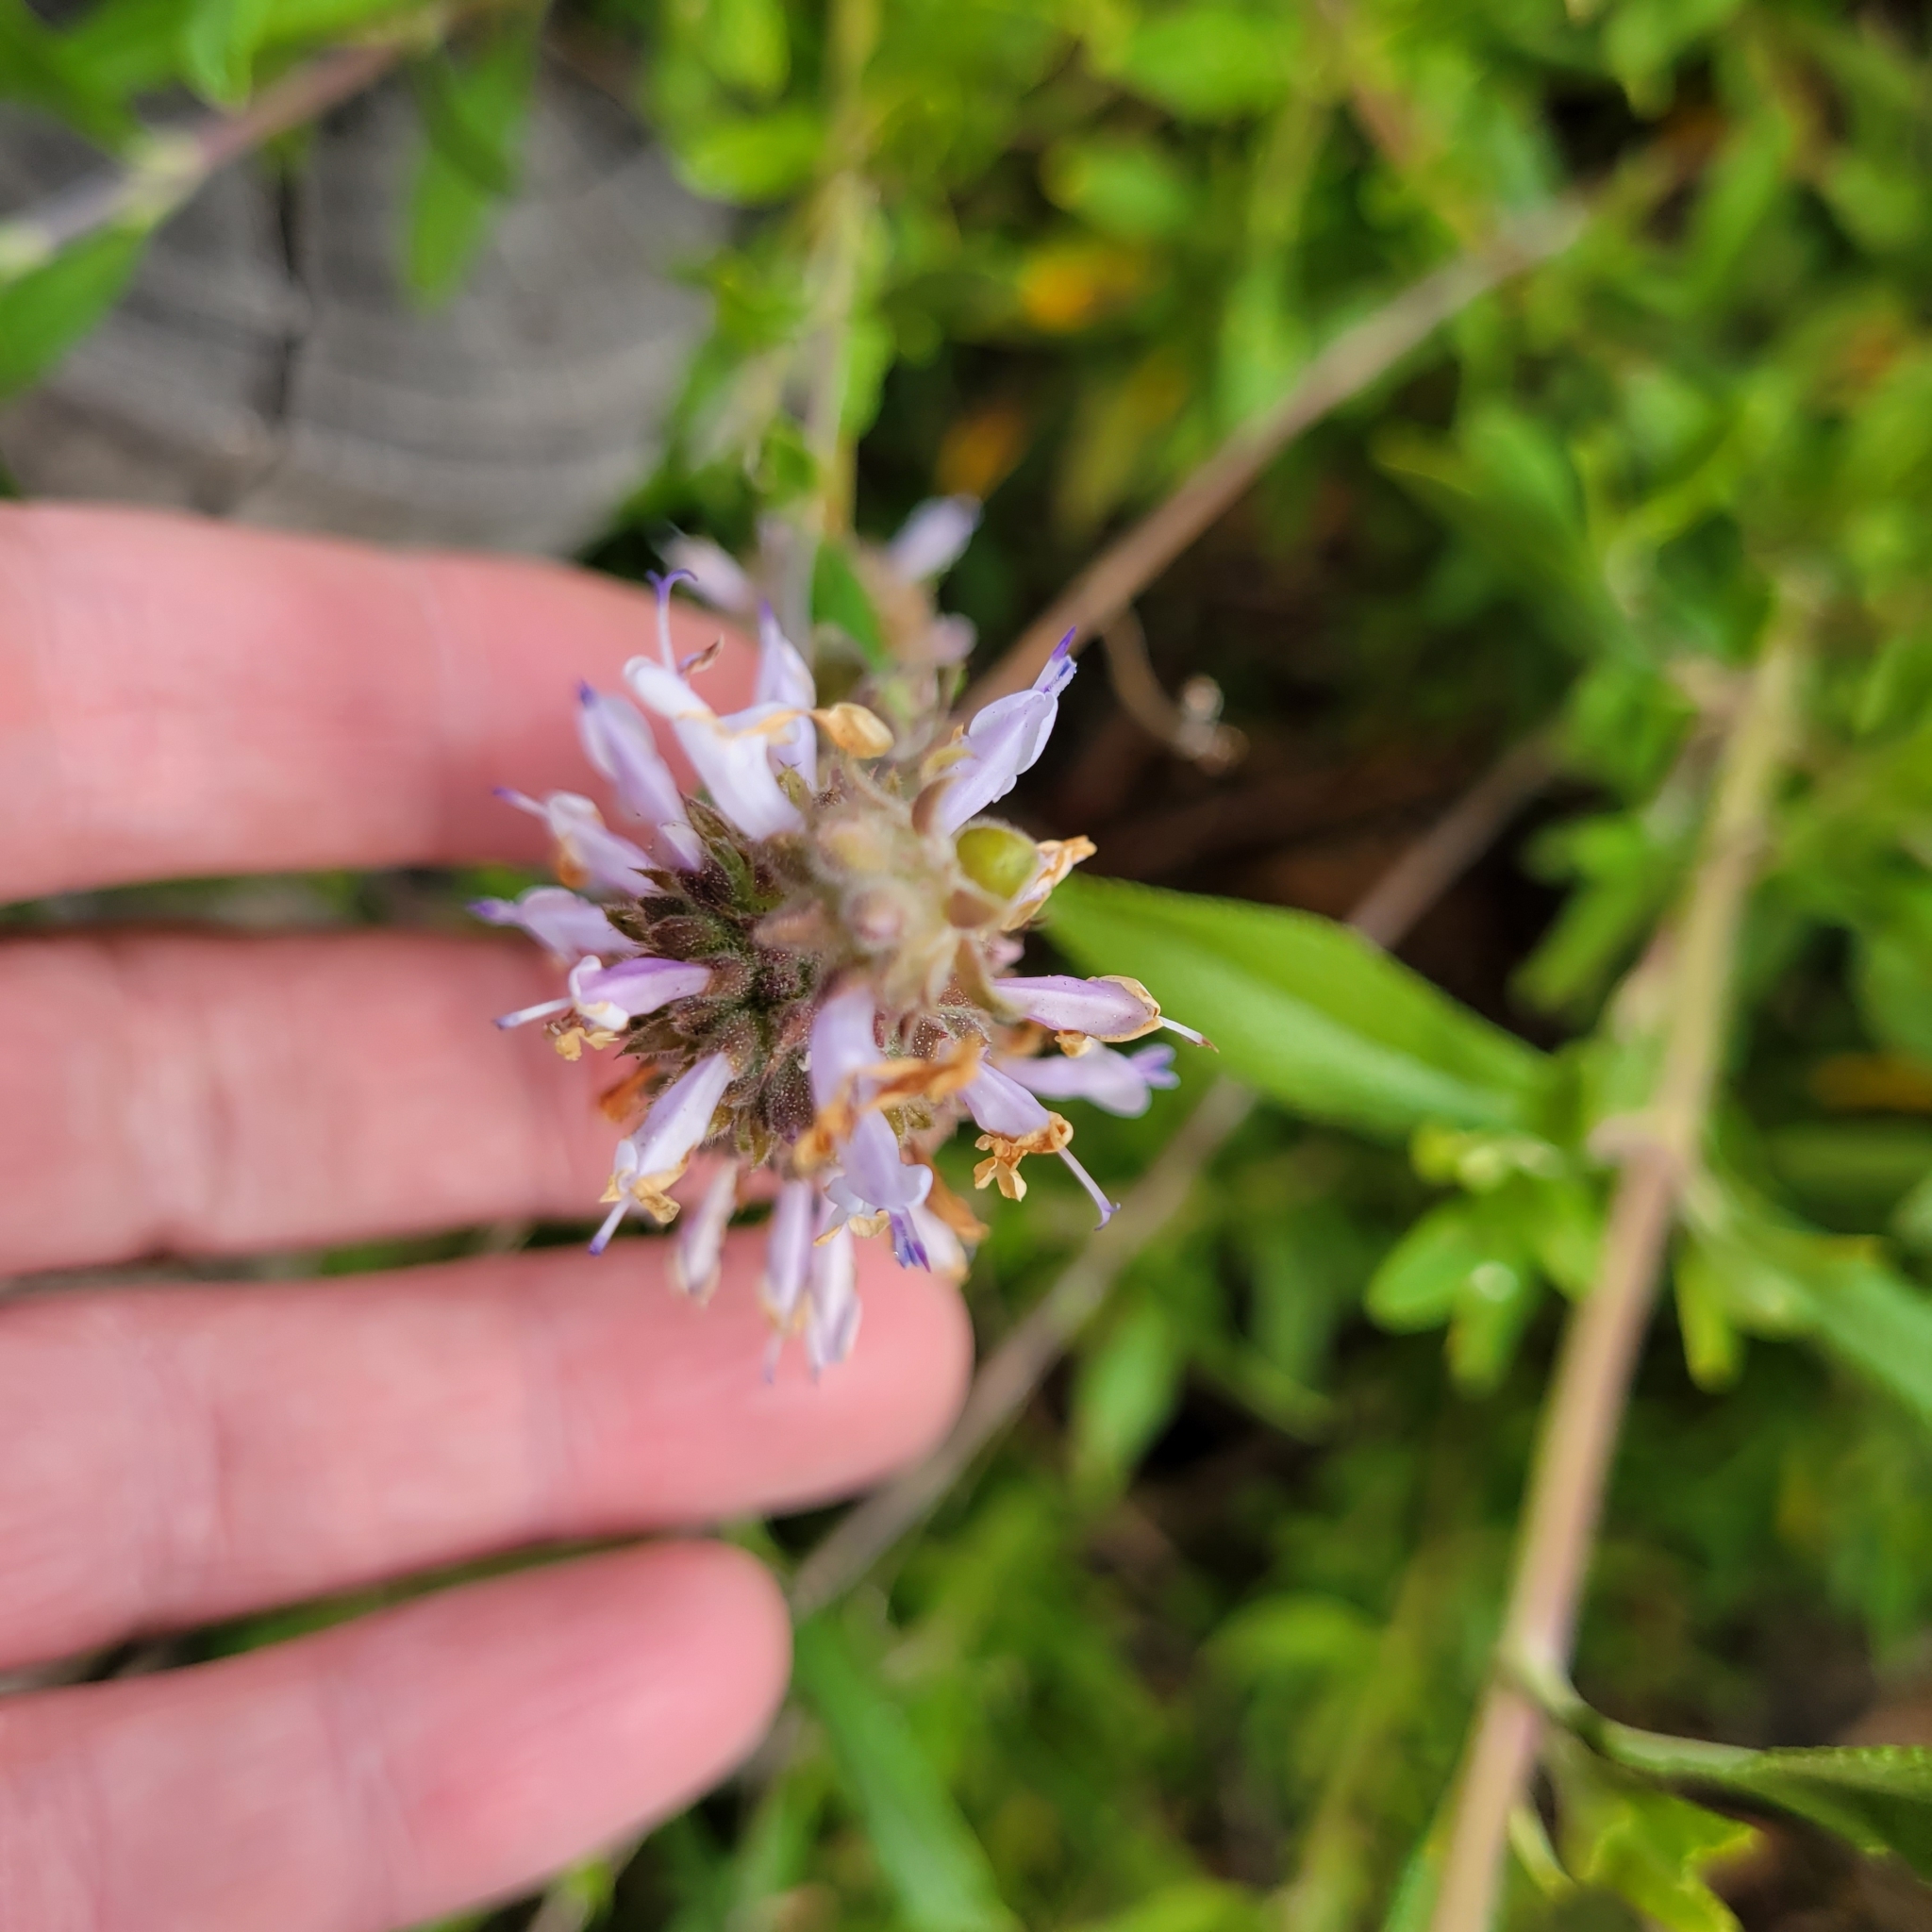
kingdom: Plantae
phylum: Tracheophyta
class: Magnoliopsida
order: Lamiales
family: Lamiaceae
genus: Salvia
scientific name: Salvia mellifera
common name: Black sage
